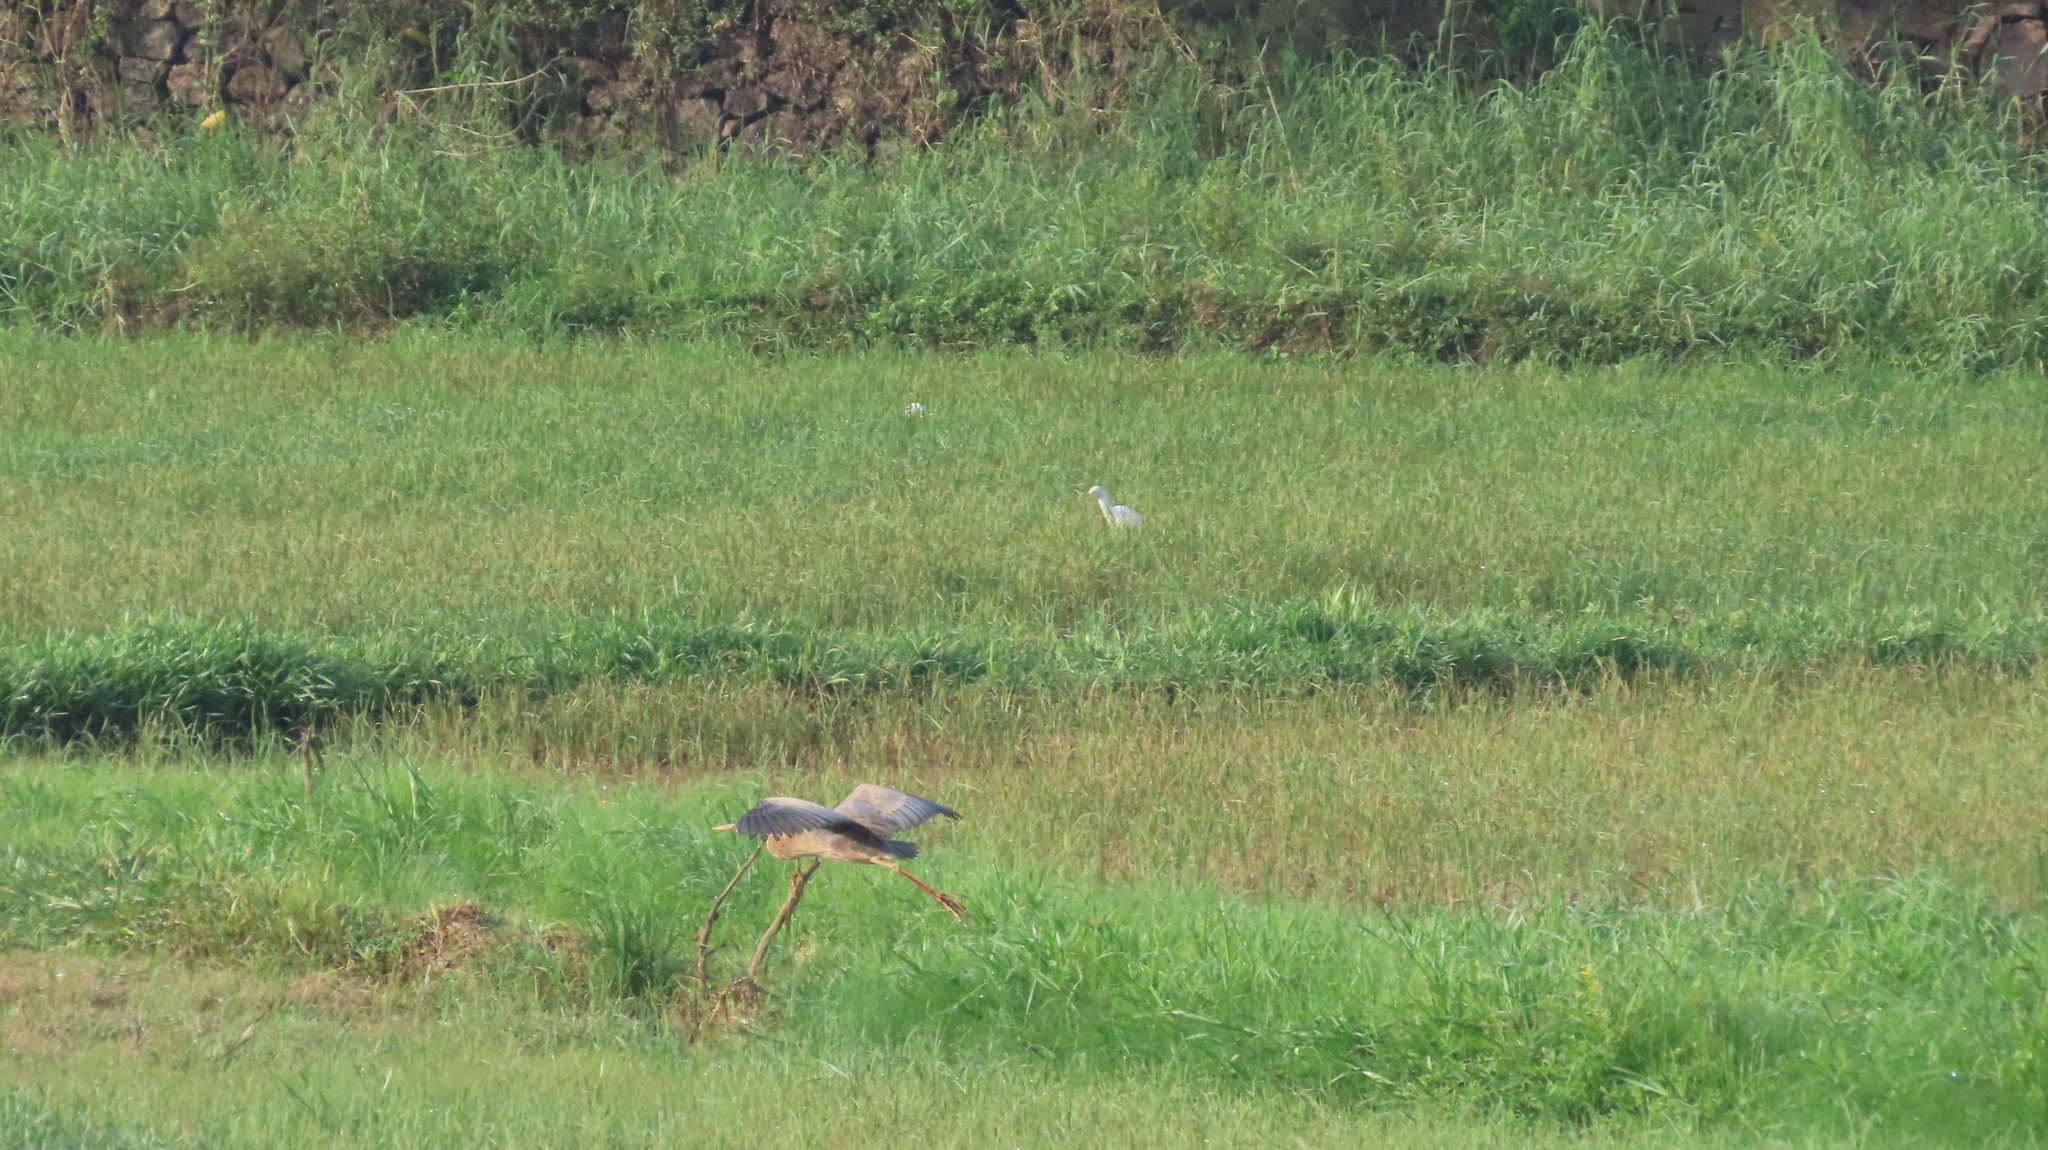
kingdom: Animalia
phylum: Chordata
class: Aves
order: Pelecaniformes
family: Ardeidae
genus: Ardea
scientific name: Ardea purpurea
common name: Purple heron
